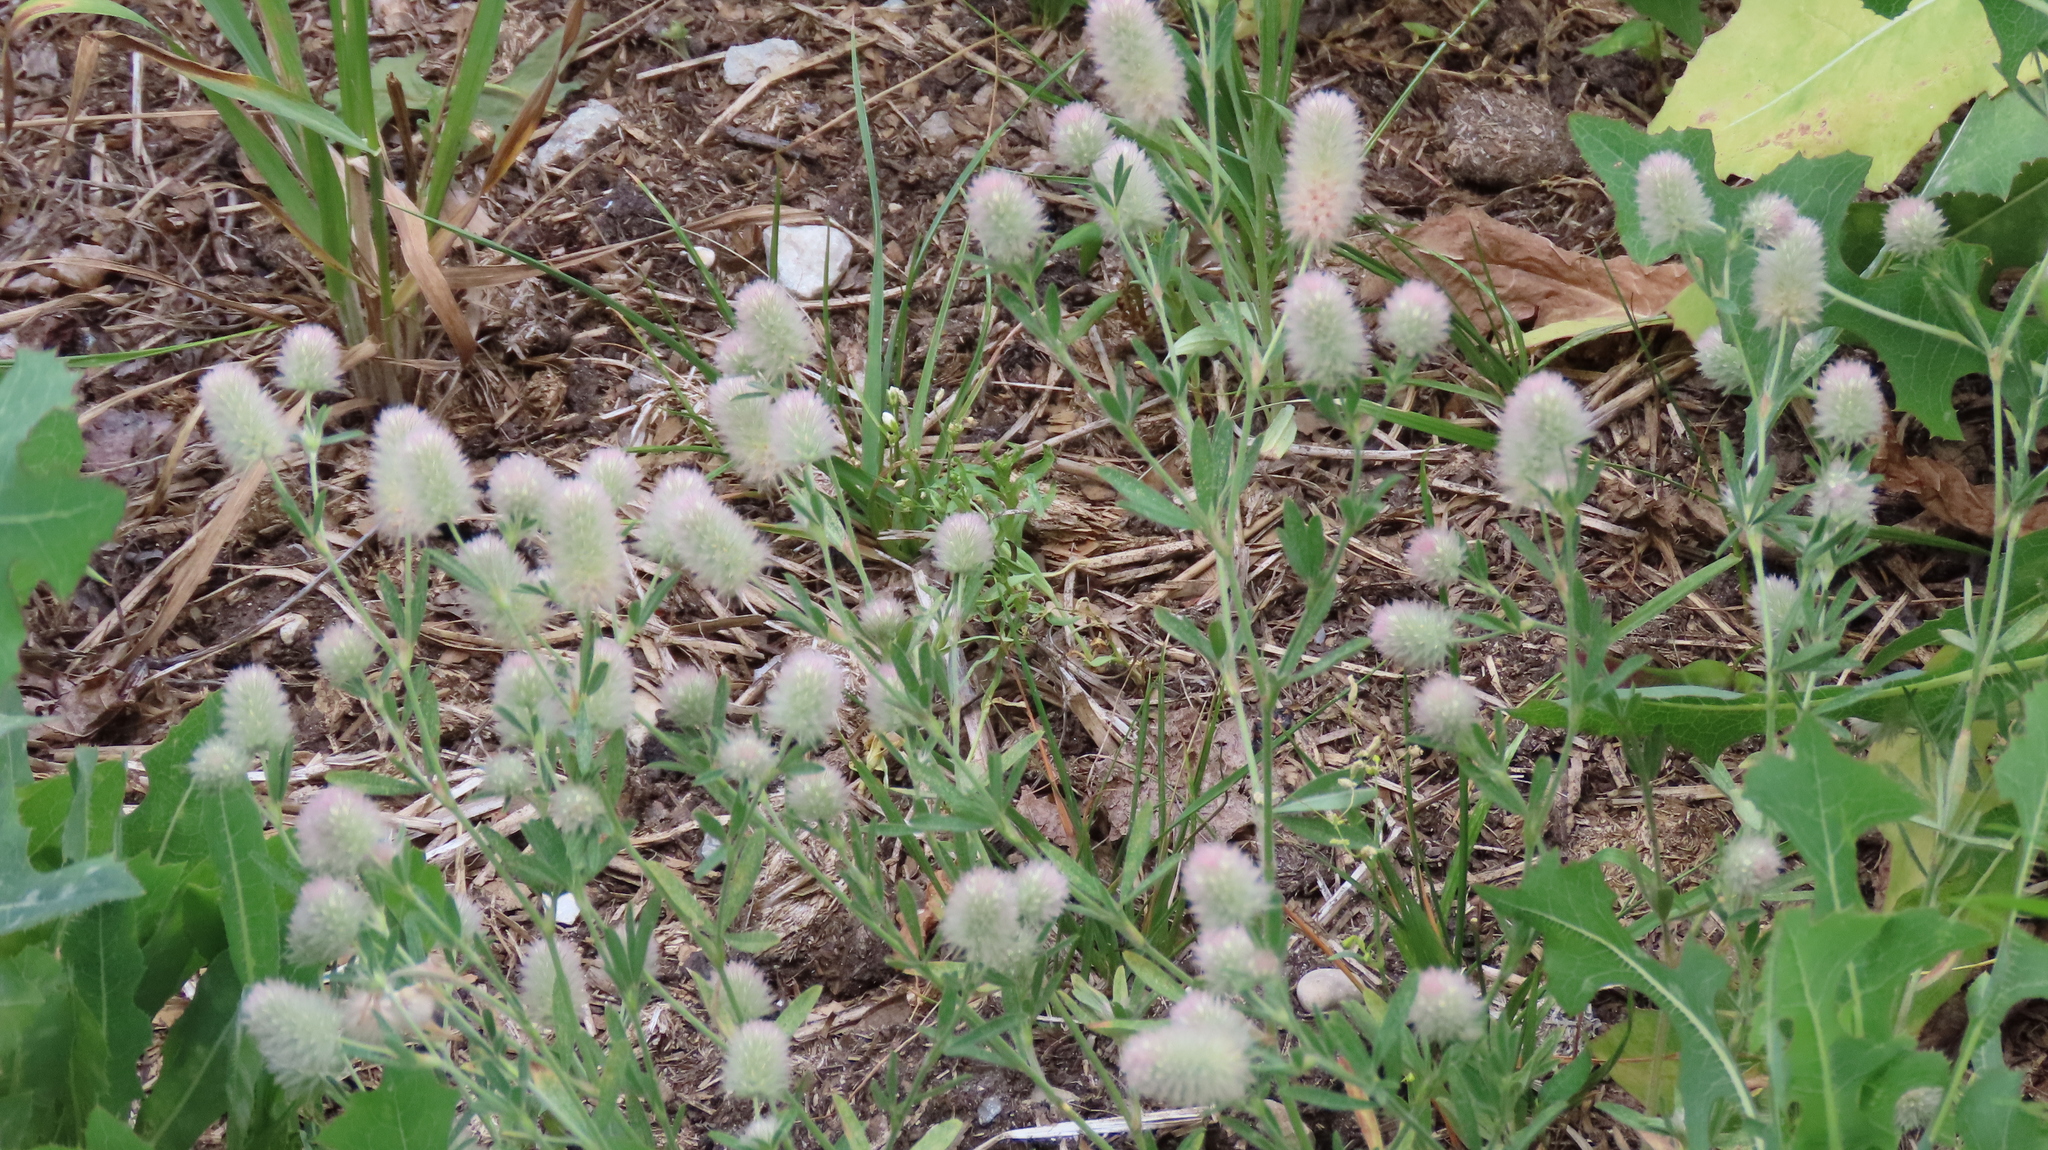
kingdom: Plantae
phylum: Tracheophyta
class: Magnoliopsida
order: Fabales
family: Fabaceae
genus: Trifolium
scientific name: Trifolium arvense
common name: Hare's-foot clover
